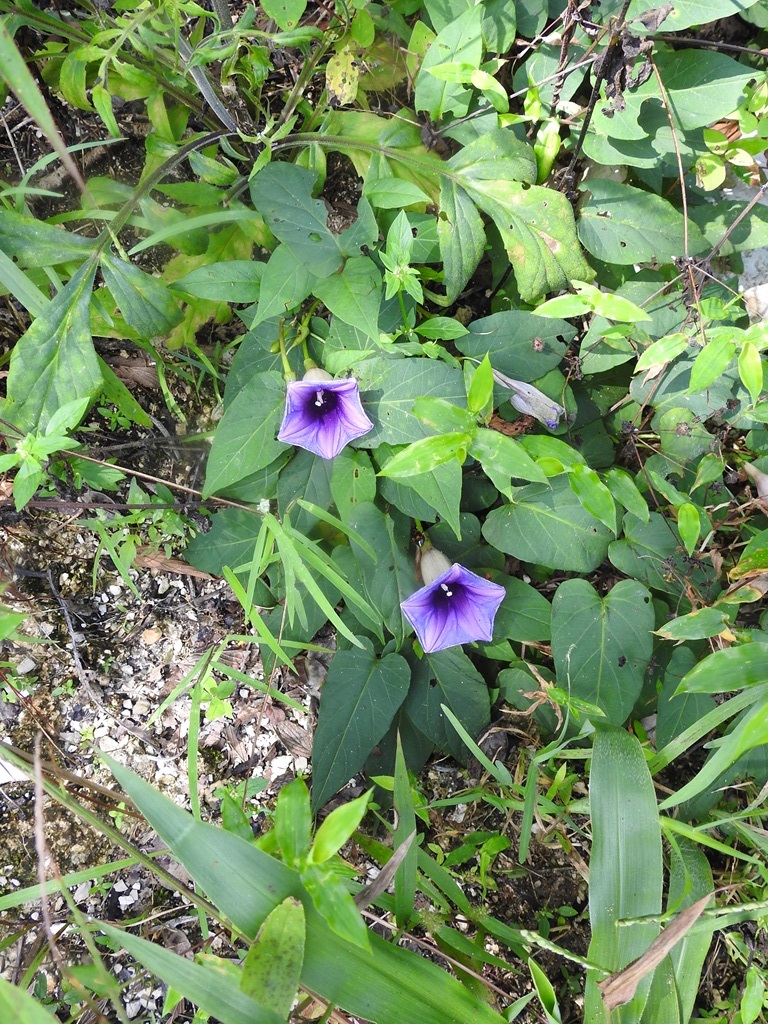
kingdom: Plantae
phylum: Tracheophyta
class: Magnoliopsida
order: Solanales
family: Convolvulaceae
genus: Ipomoea
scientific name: Ipomoea lindenii
